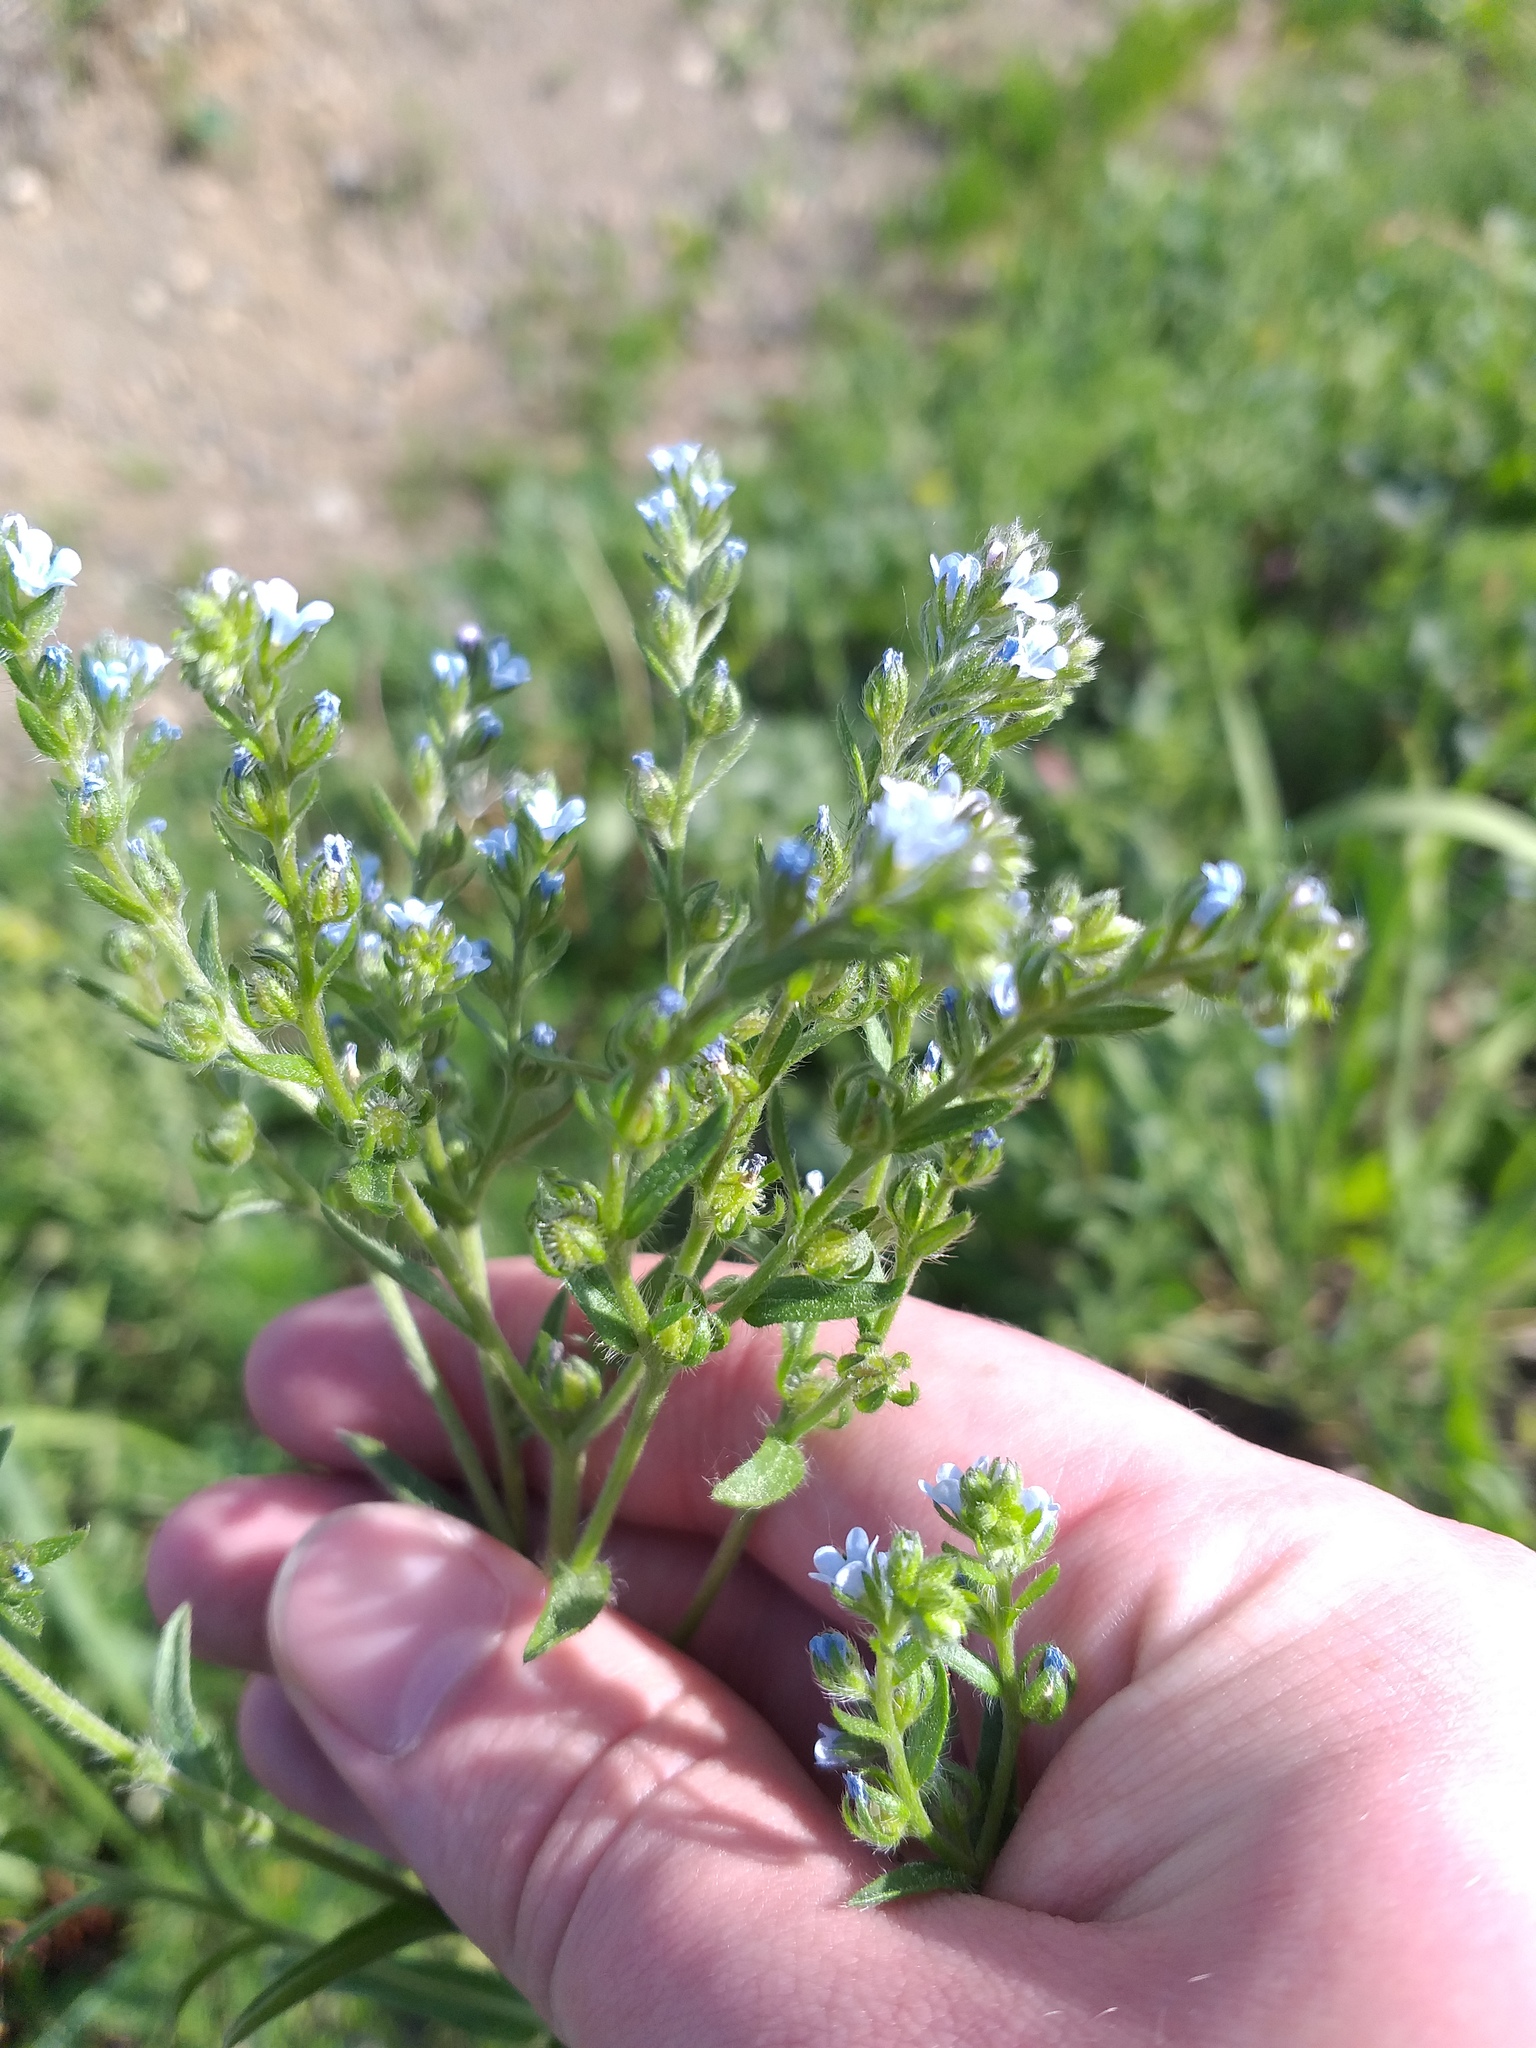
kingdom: Plantae
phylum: Tracheophyta
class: Magnoliopsida
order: Boraginales
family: Boraginaceae
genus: Lappula
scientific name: Lappula squarrosa
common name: European stickseed
